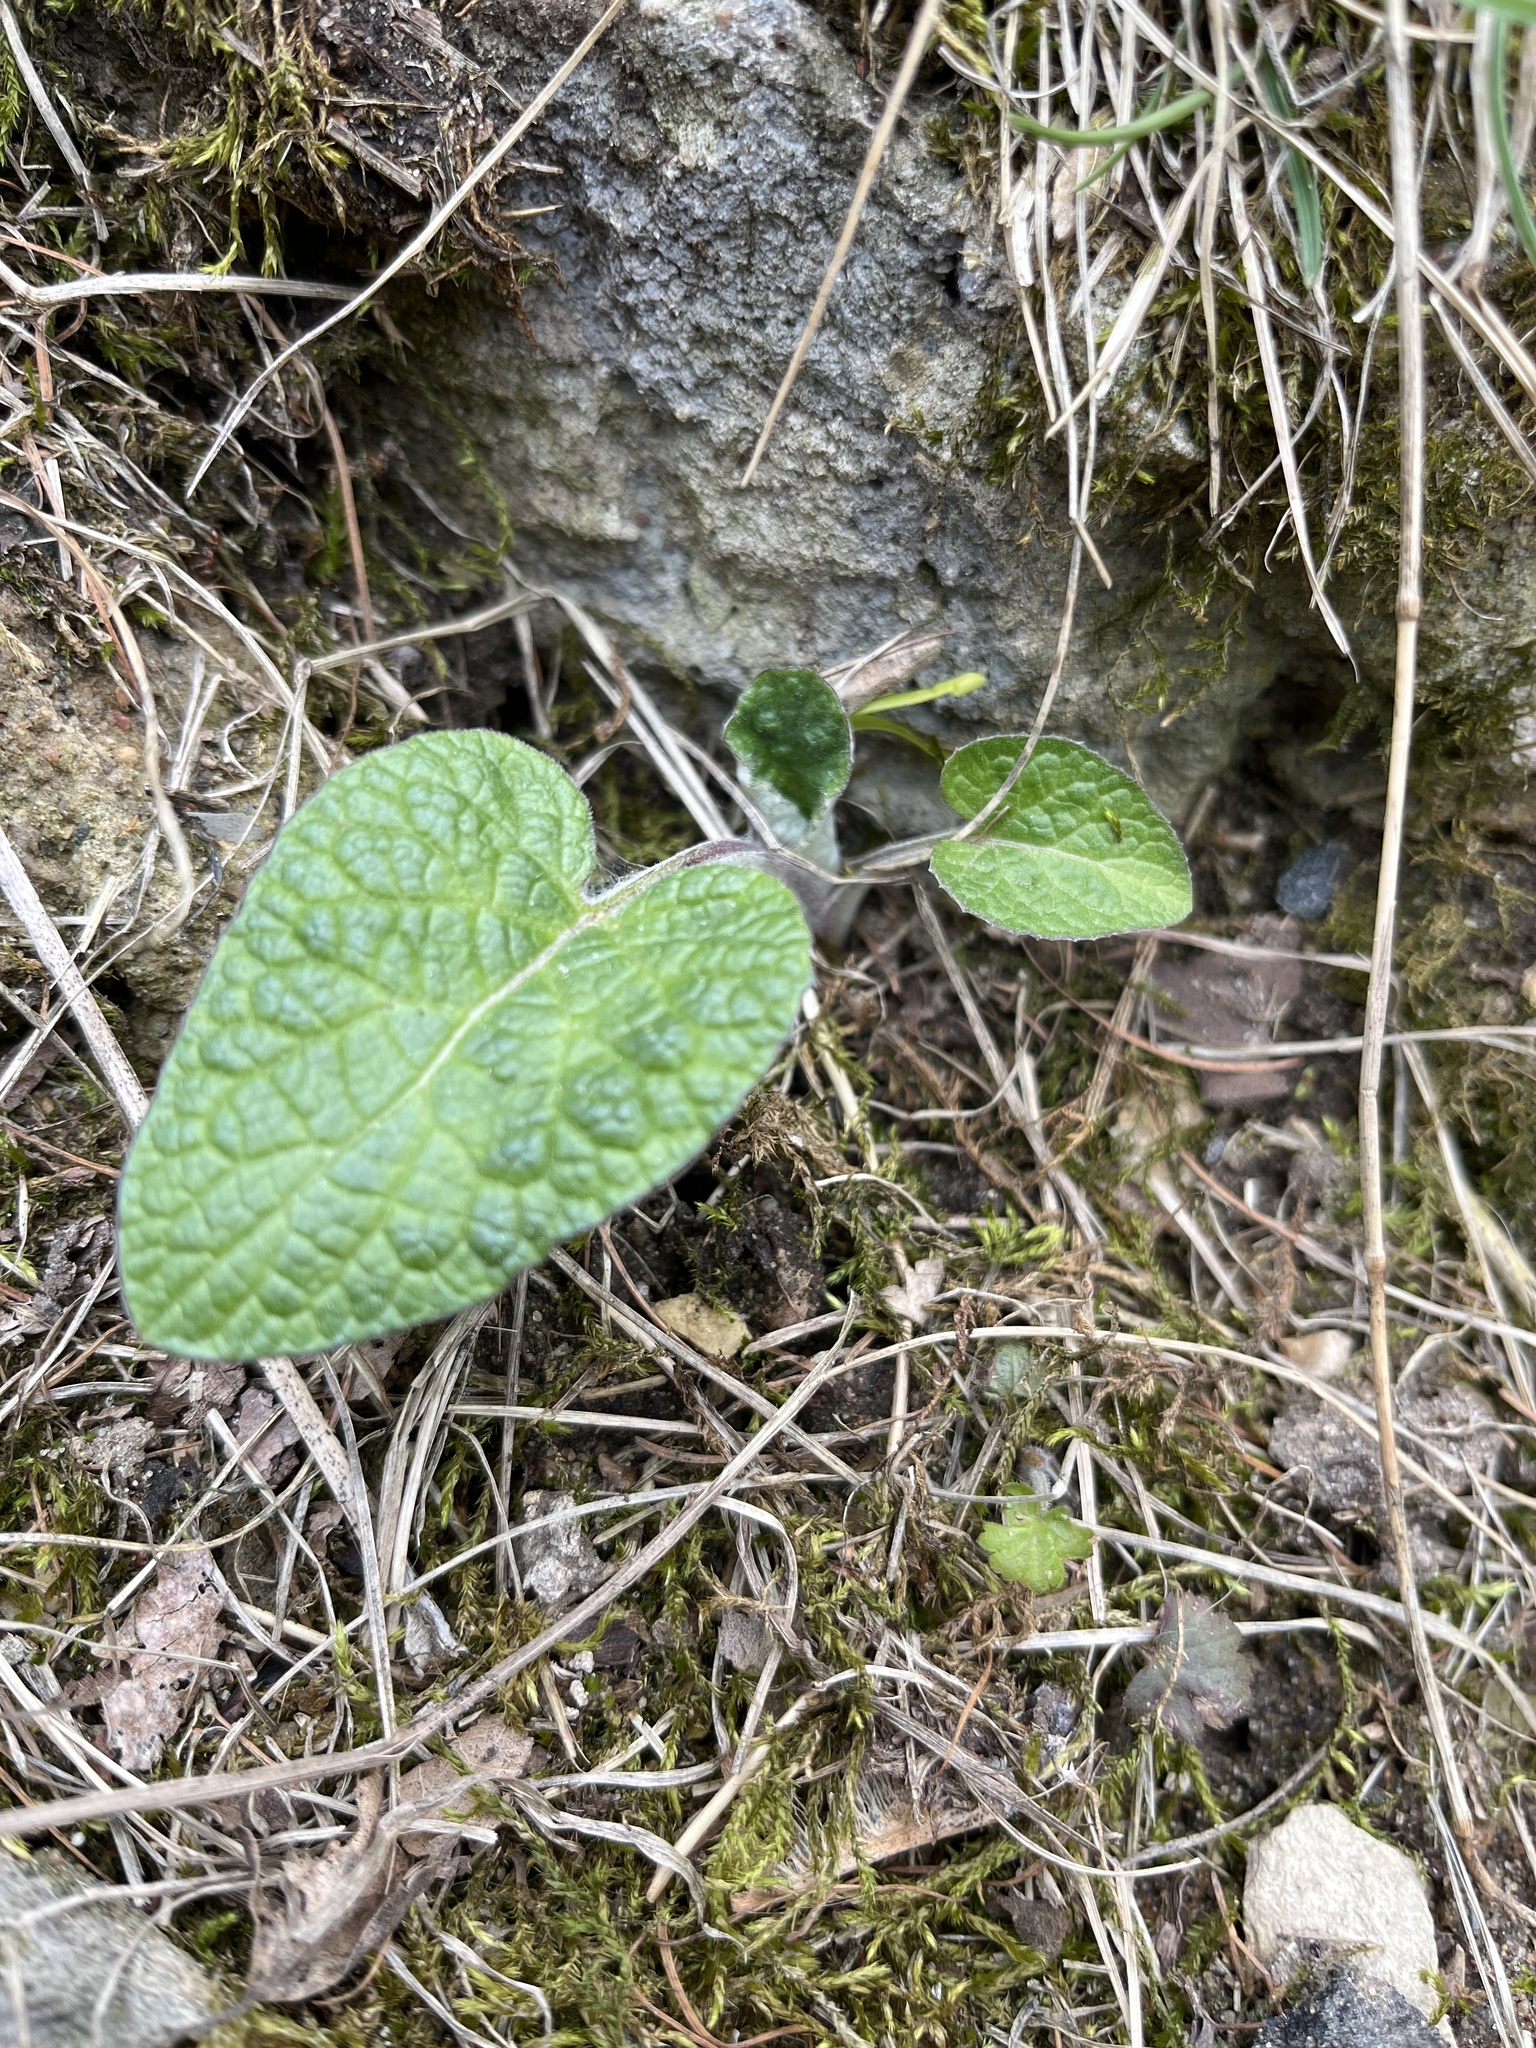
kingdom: Plantae
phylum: Tracheophyta
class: Magnoliopsida
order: Asterales
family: Asteraceae
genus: Arctium
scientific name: Arctium
